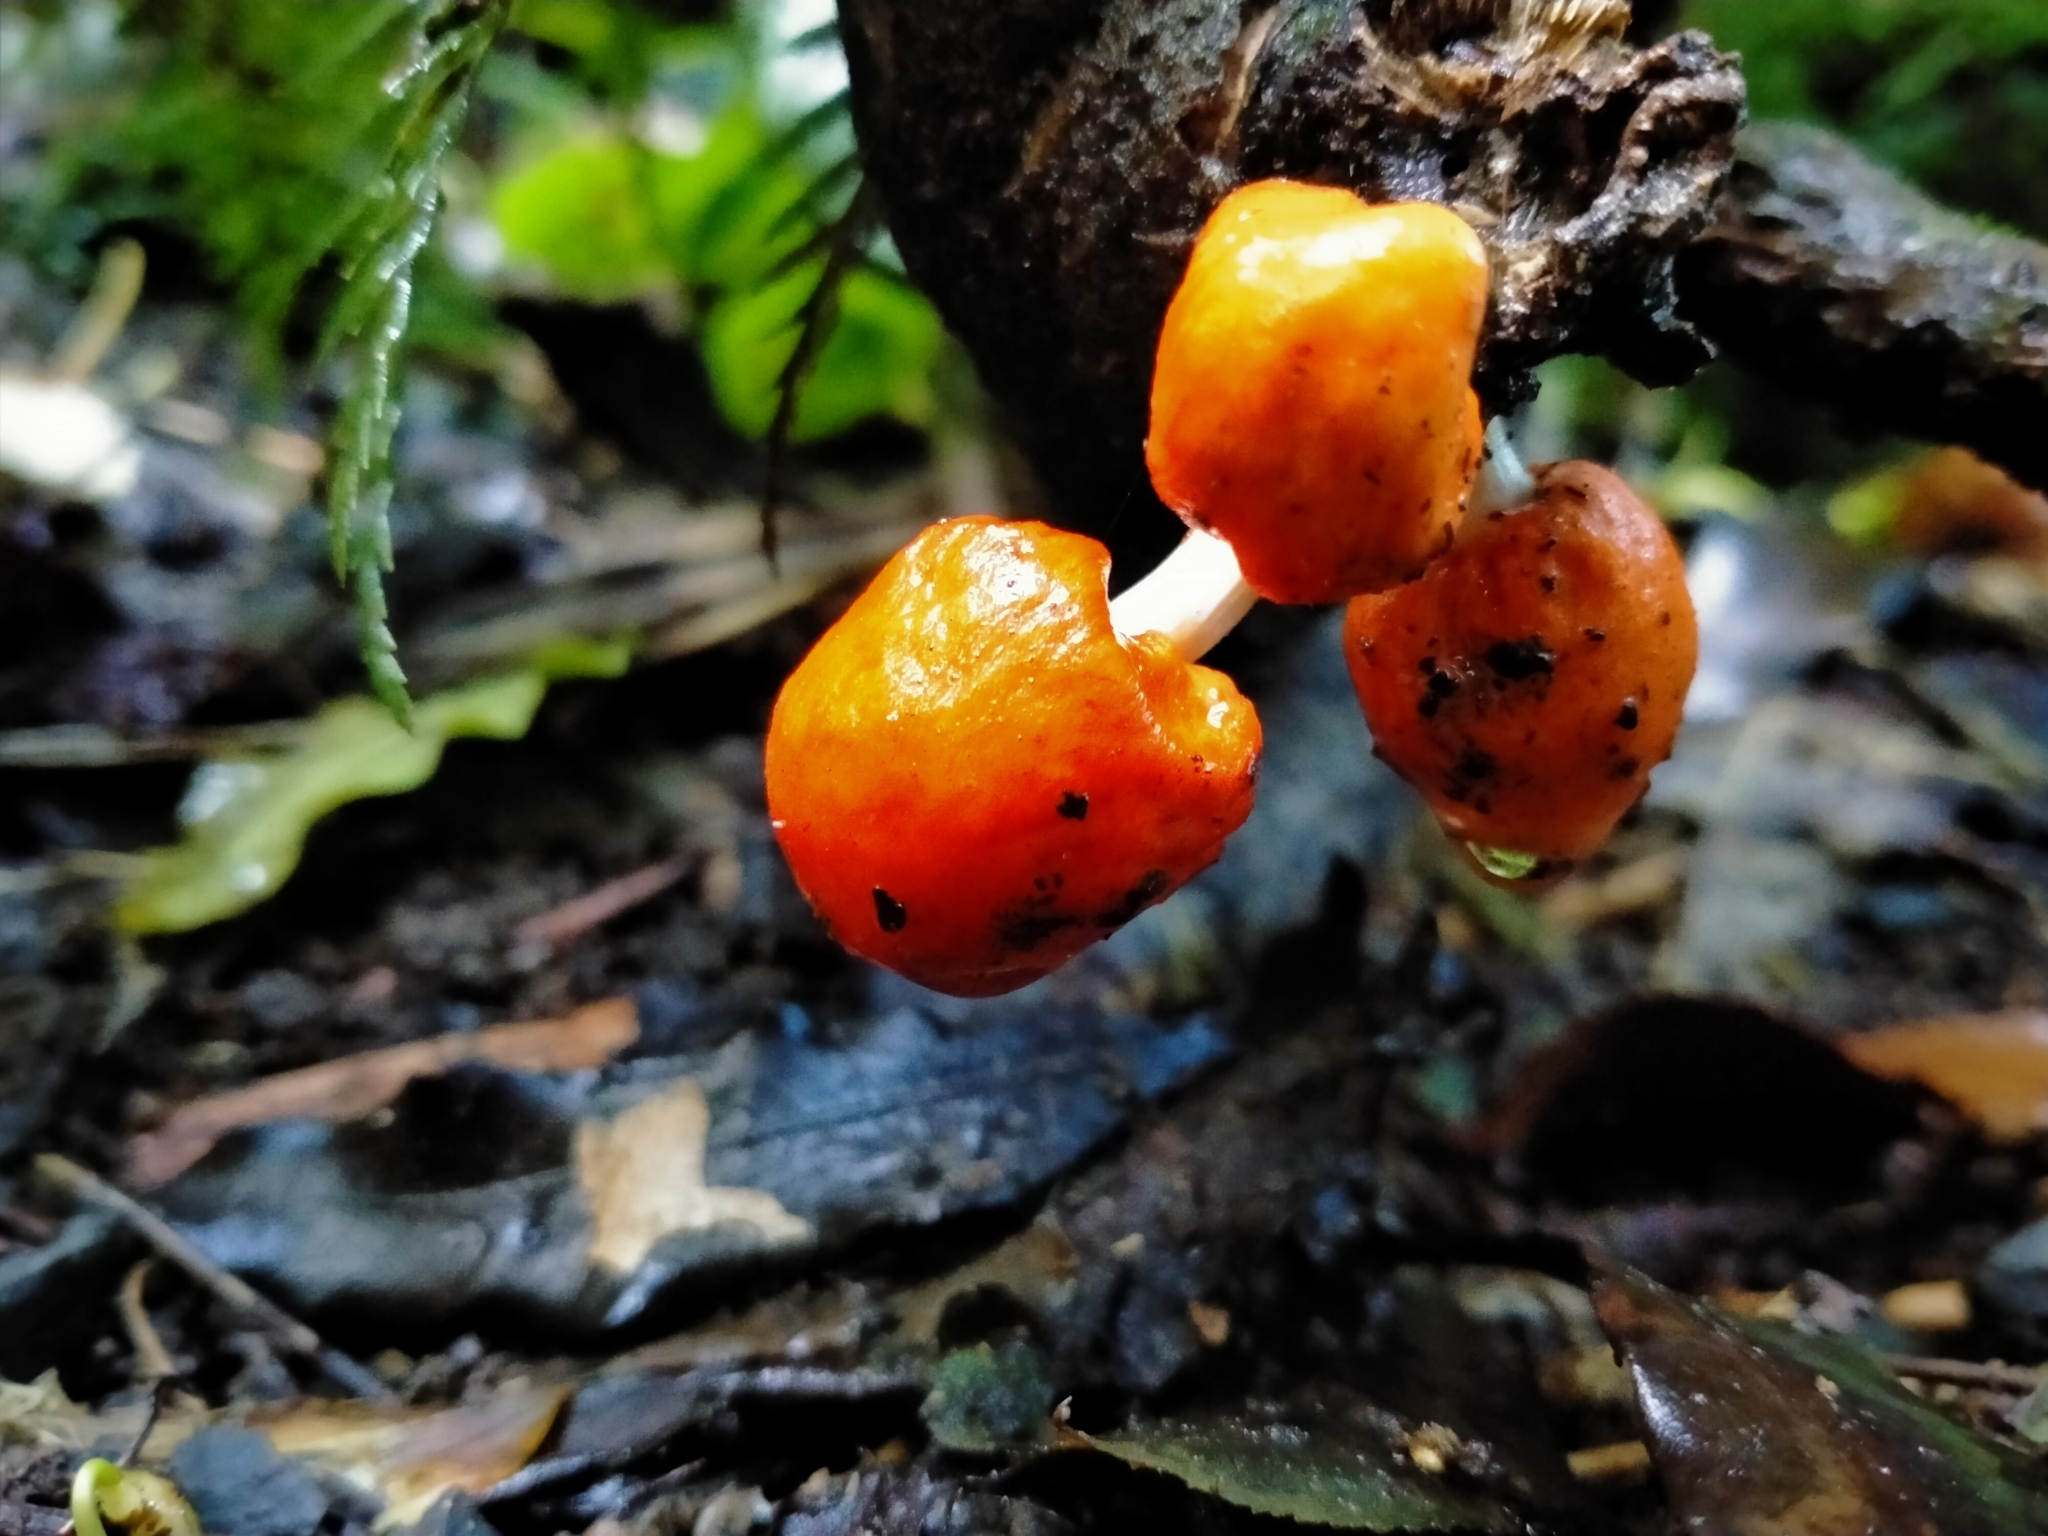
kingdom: Fungi
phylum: Basidiomycota
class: Agaricomycetes
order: Agaricales
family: Strophariaceae
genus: Leratiomyces
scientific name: Leratiomyces erythrocephalus
